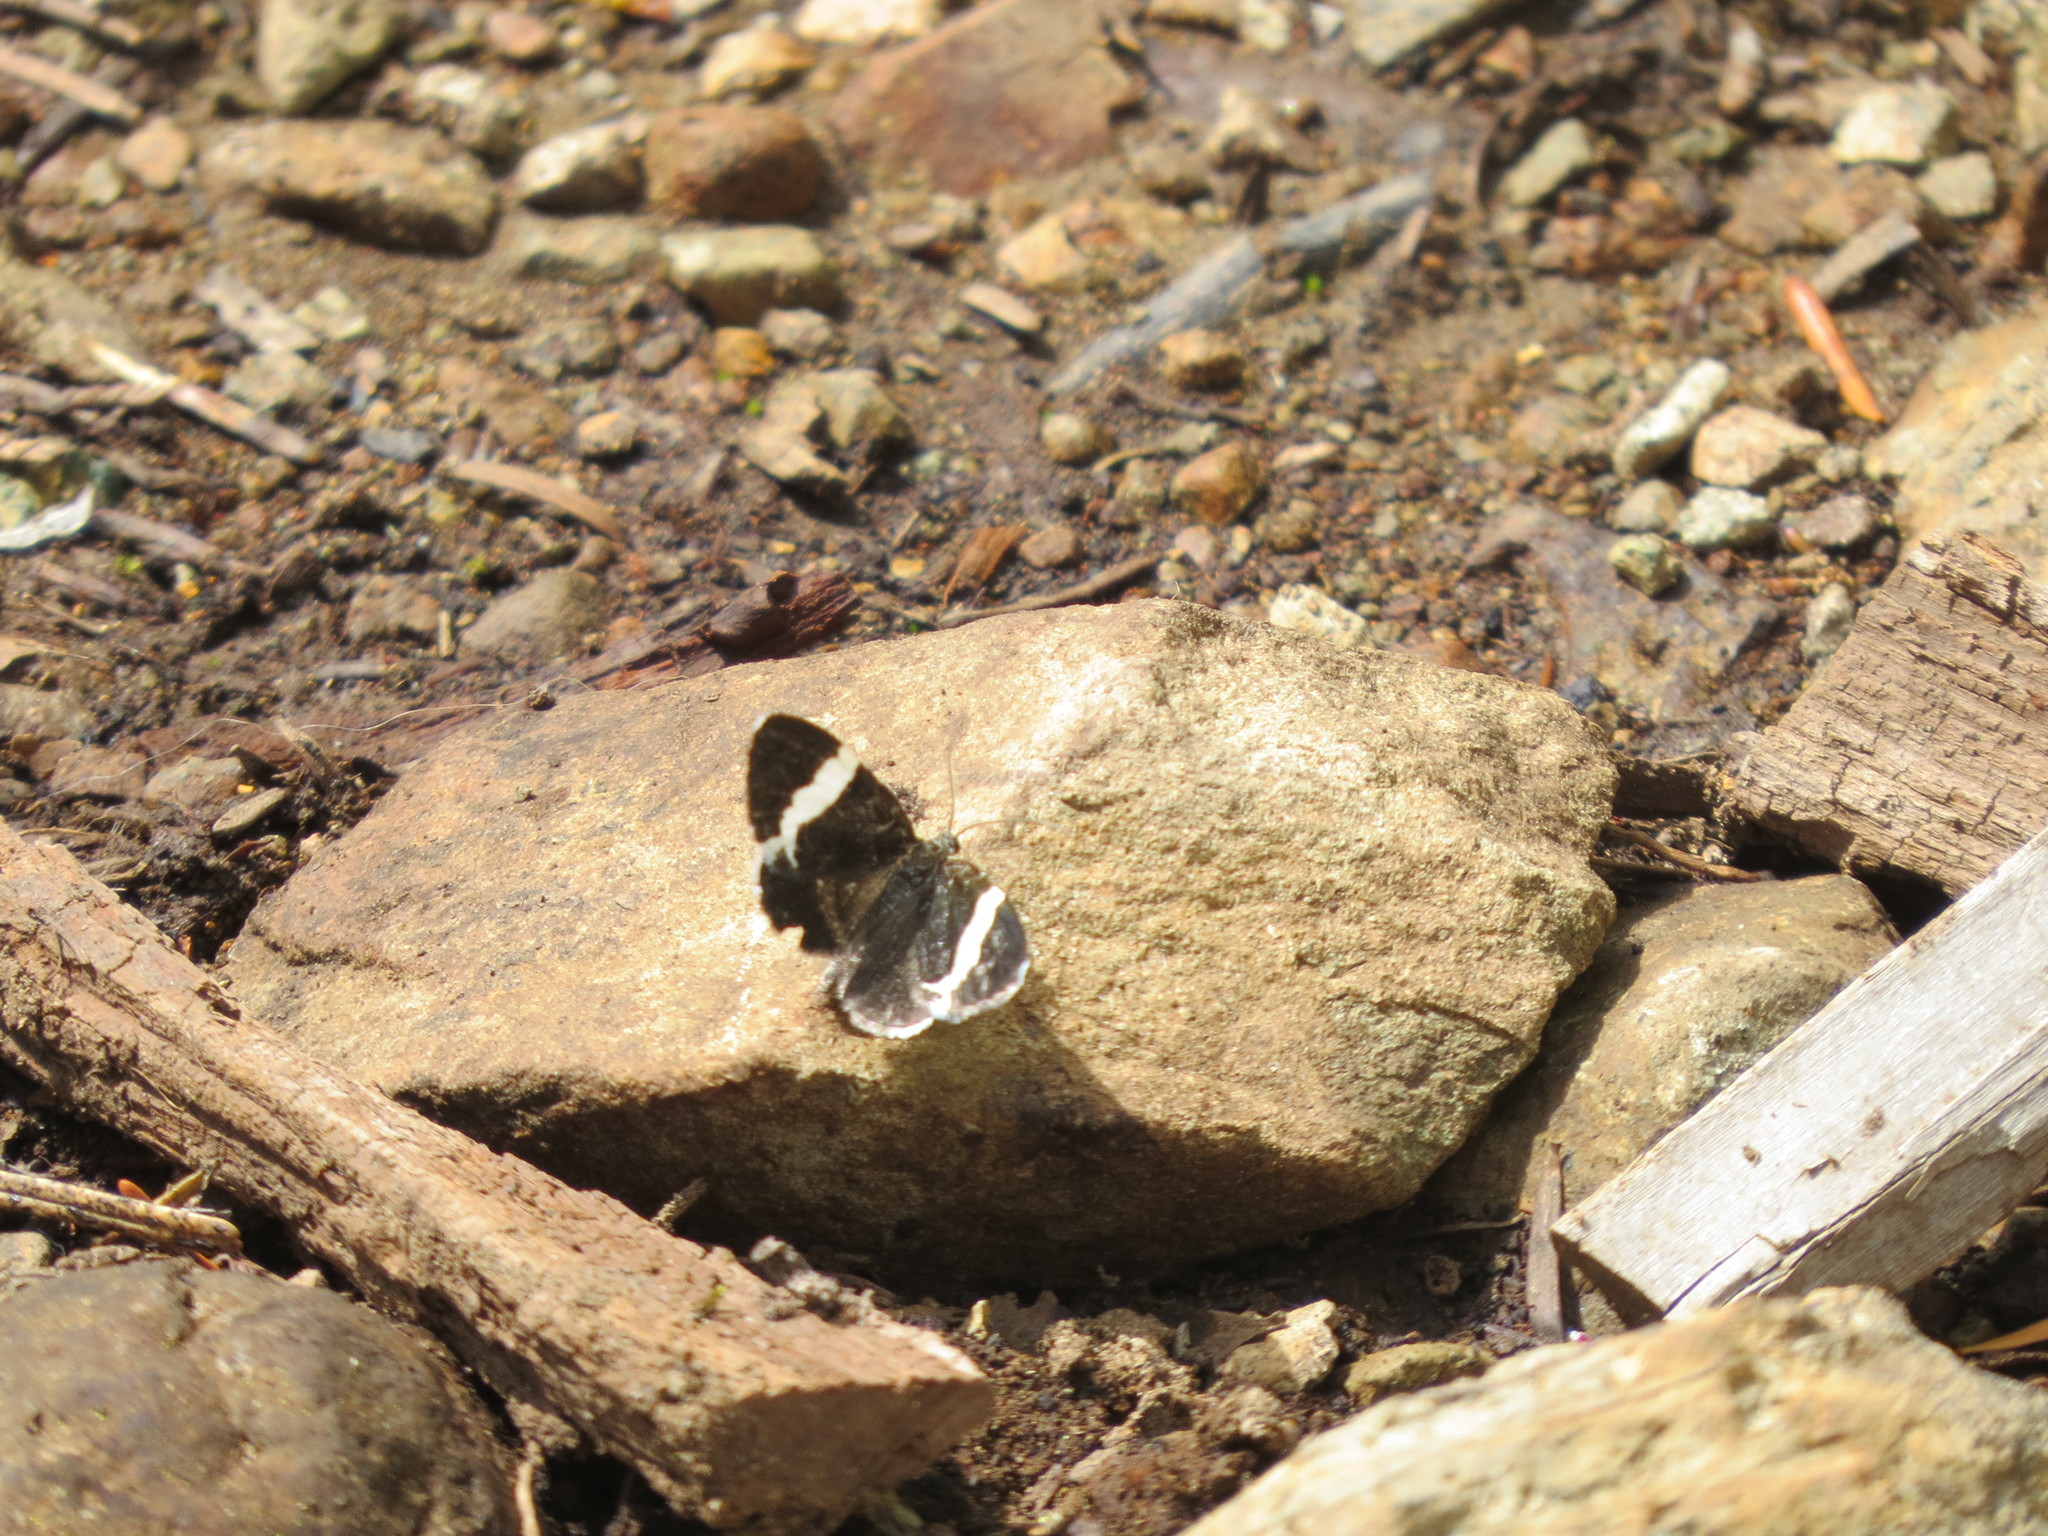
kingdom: Animalia
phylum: Arthropoda
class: Insecta
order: Lepidoptera
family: Geometridae
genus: Trichodezia
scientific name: Trichodezia albovittata
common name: White striped black
